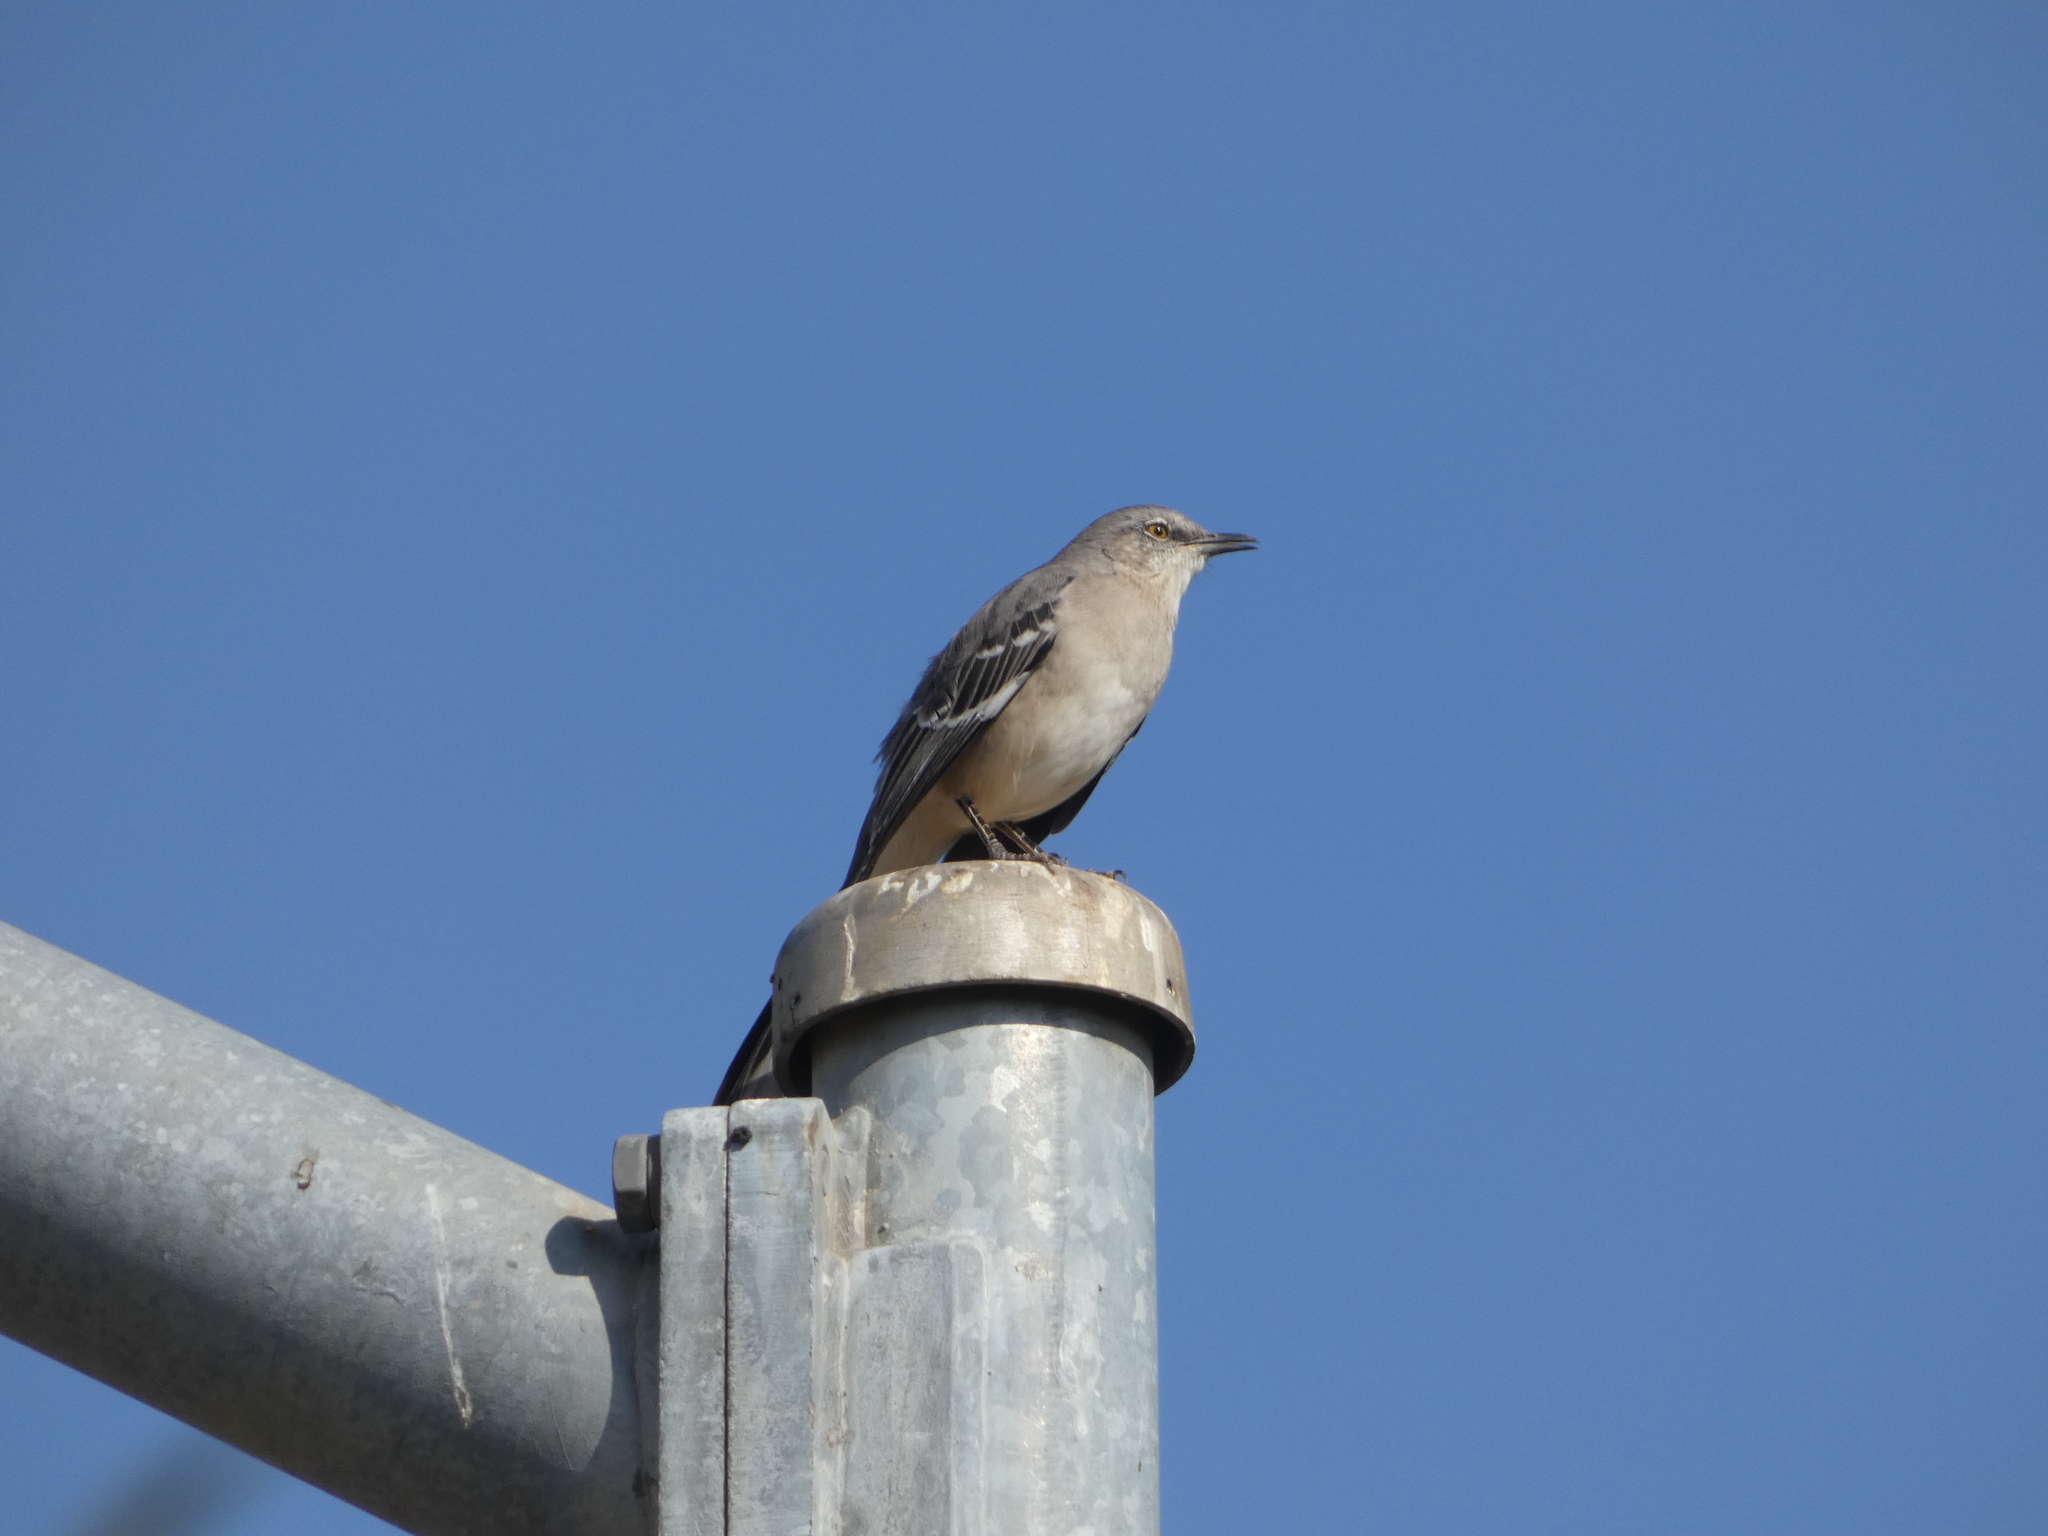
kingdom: Animalia
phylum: Chordata
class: Aves
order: Passeriformes
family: Mimidae
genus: Mimus
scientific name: Mimus polyglottos
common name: Northern mockingbird
